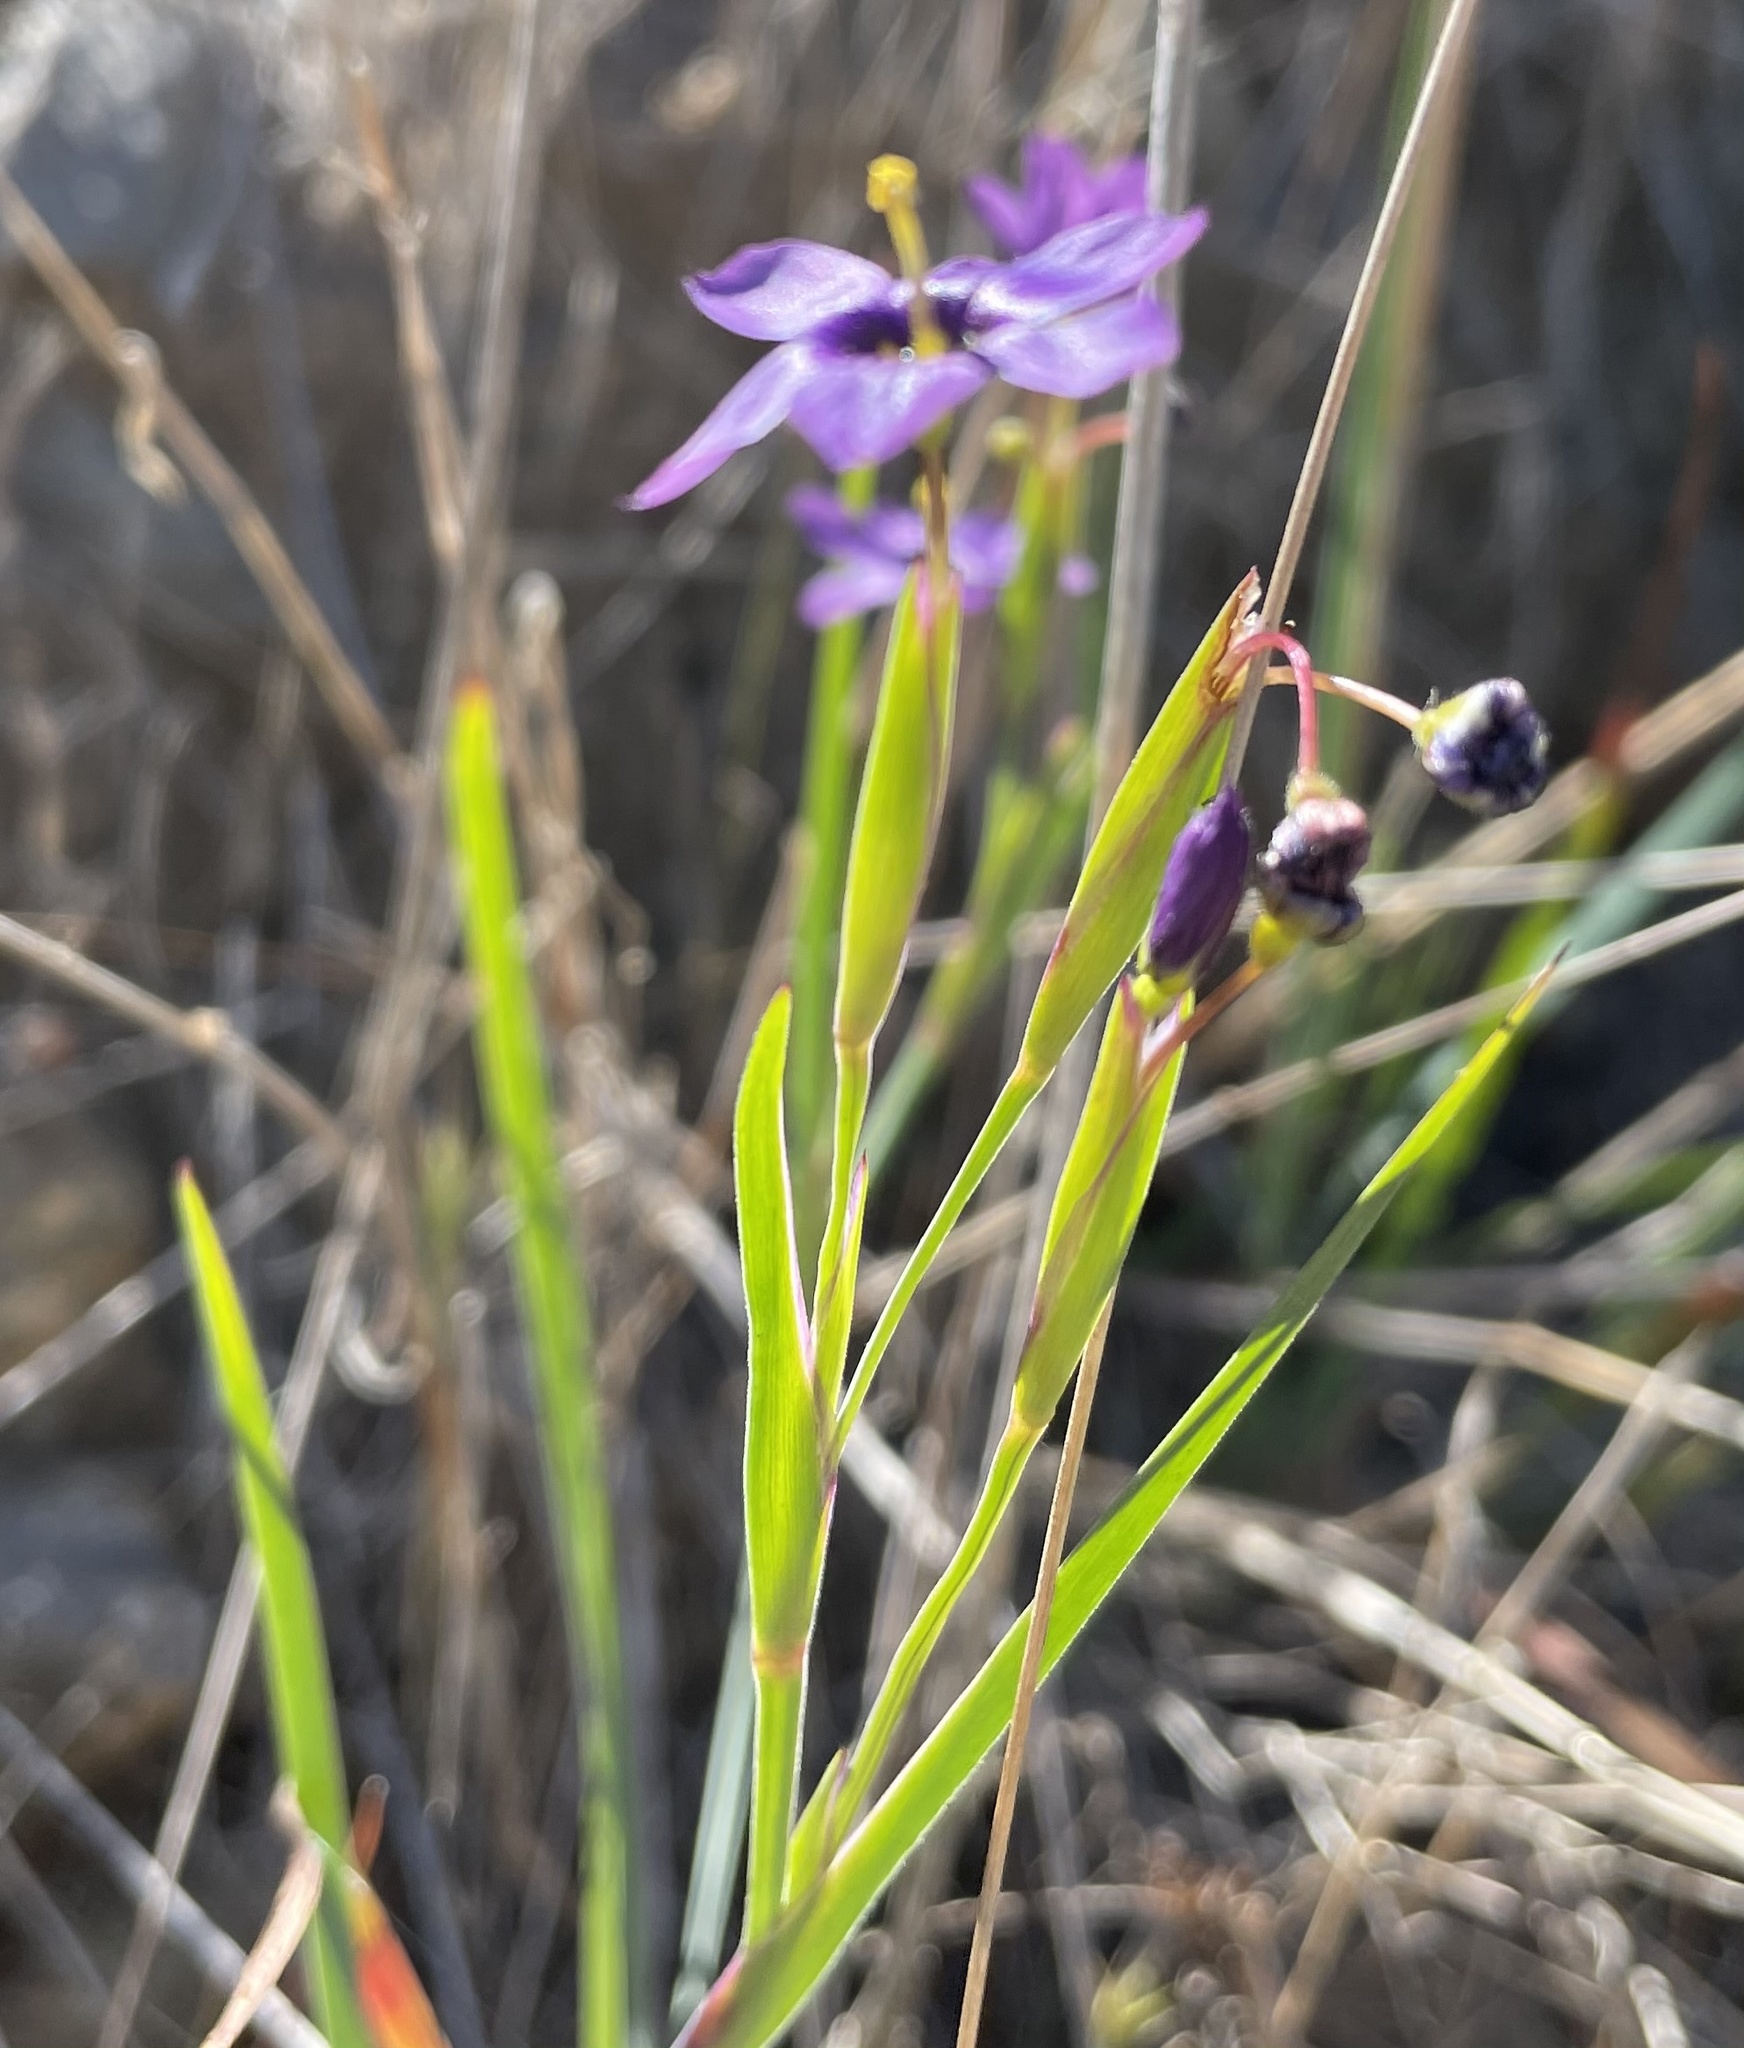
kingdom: Plantae
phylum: Tracheophyta
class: Liliopsida
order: Asparagales
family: Iridaceae
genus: Sisyrinchium
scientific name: Sisyrinchium bellum
